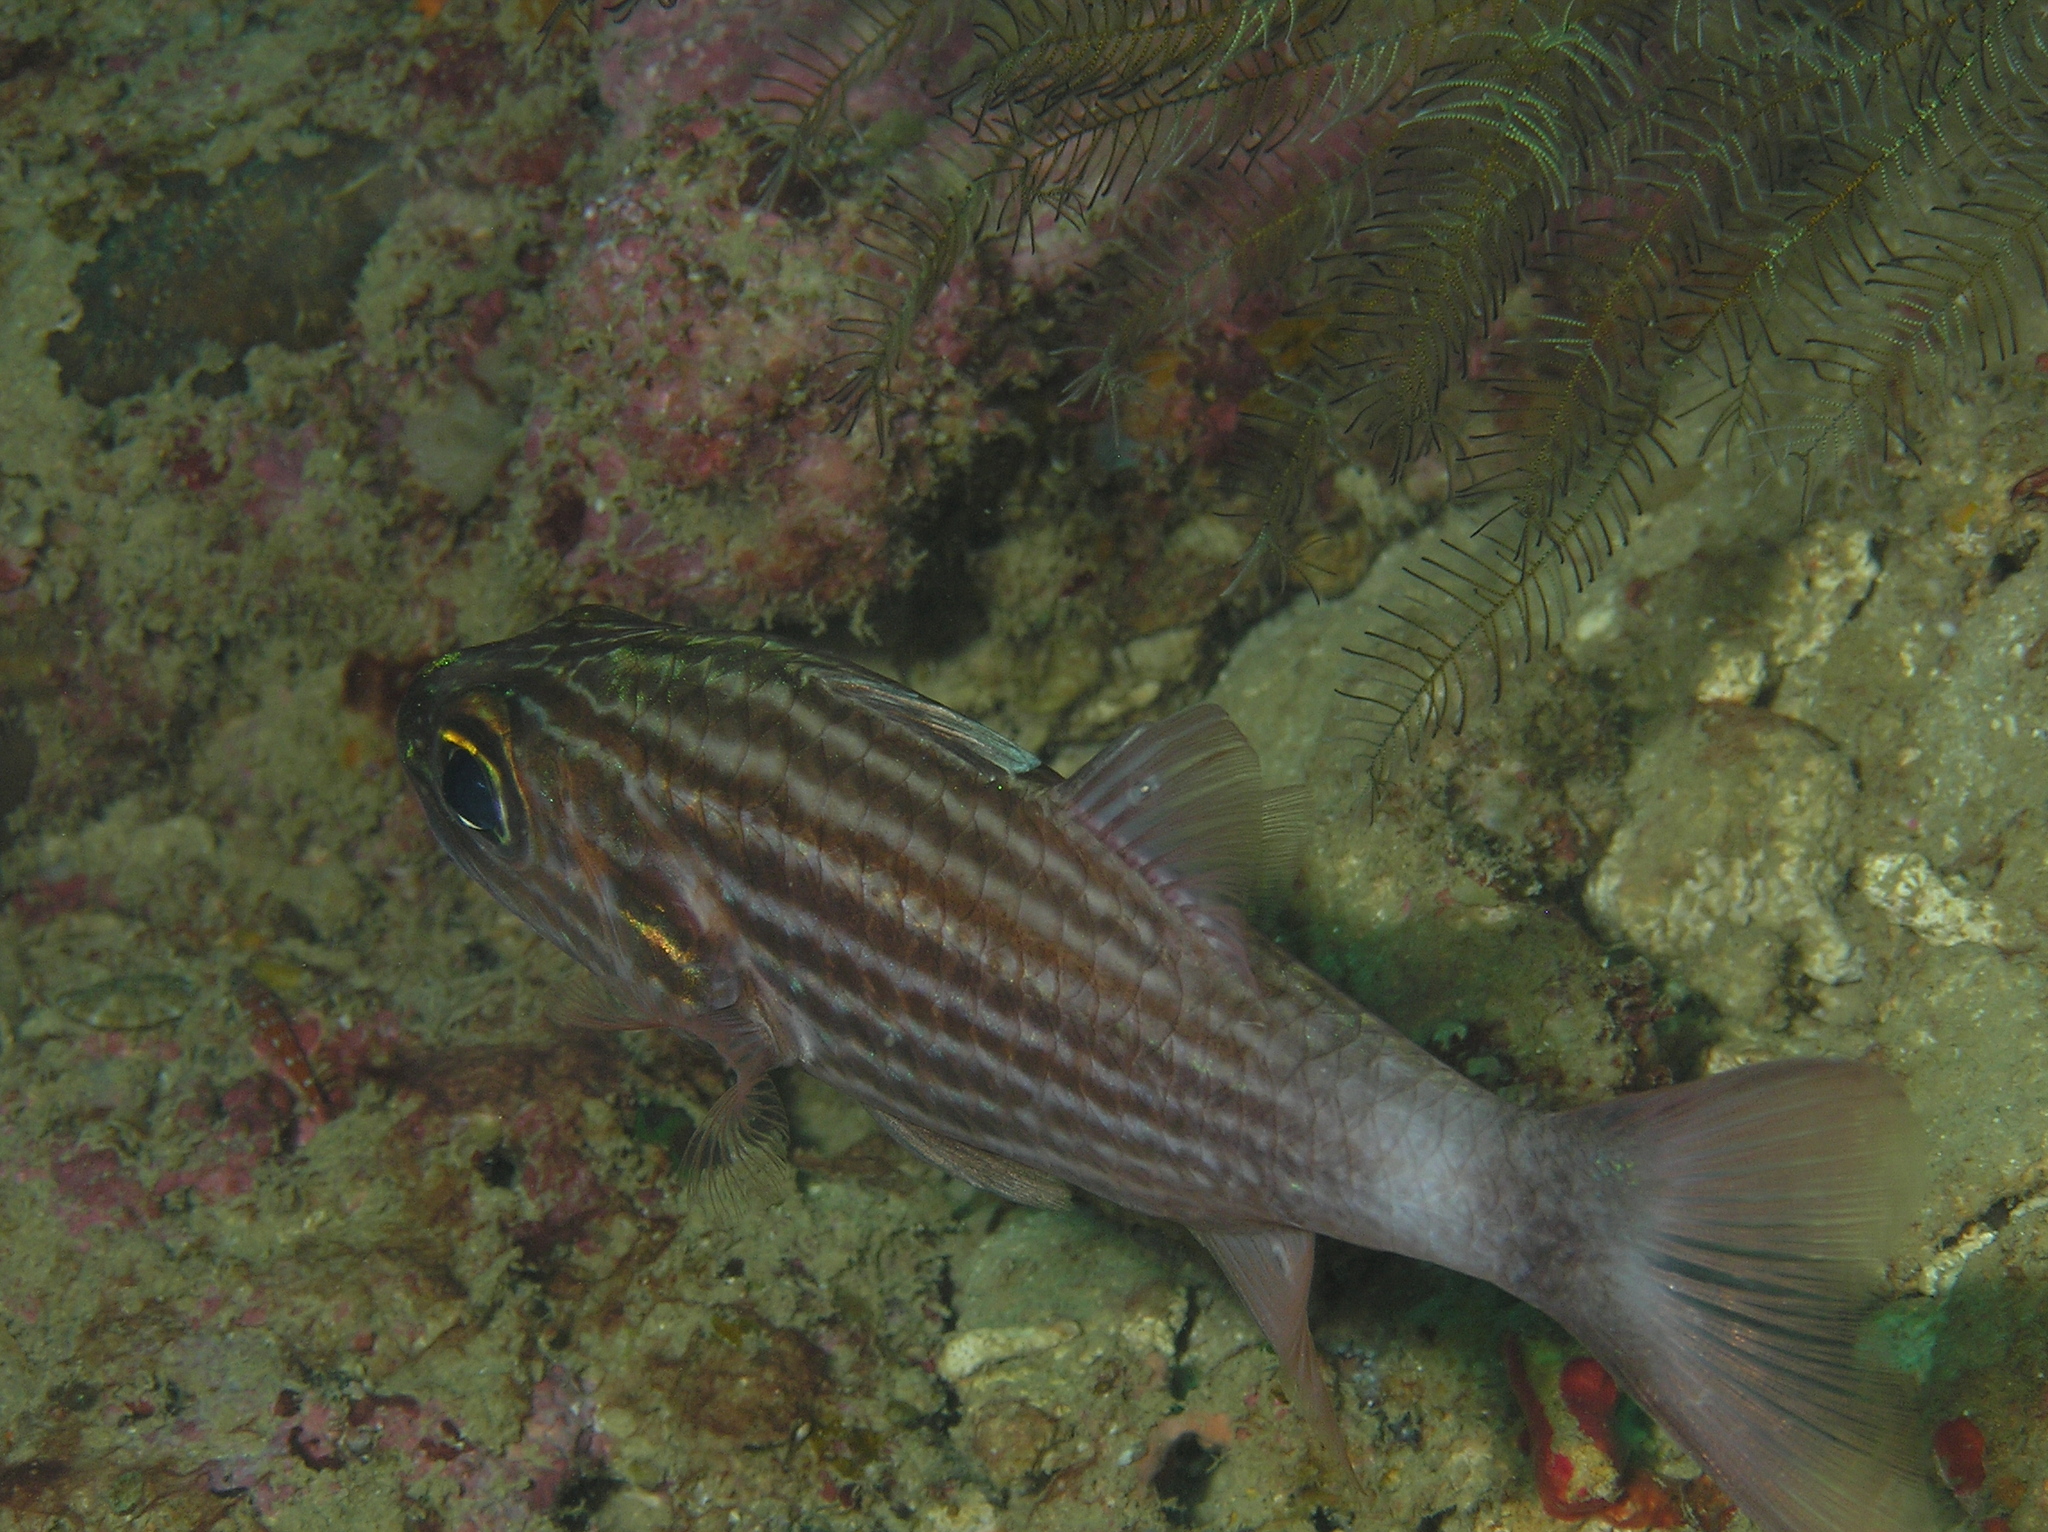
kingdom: Animalia
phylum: Chordata
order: Perciformes
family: Apogonidae
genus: Cheilodipterus
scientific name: Cheilodipterus macrodon
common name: Eight-lined cardinalfish
